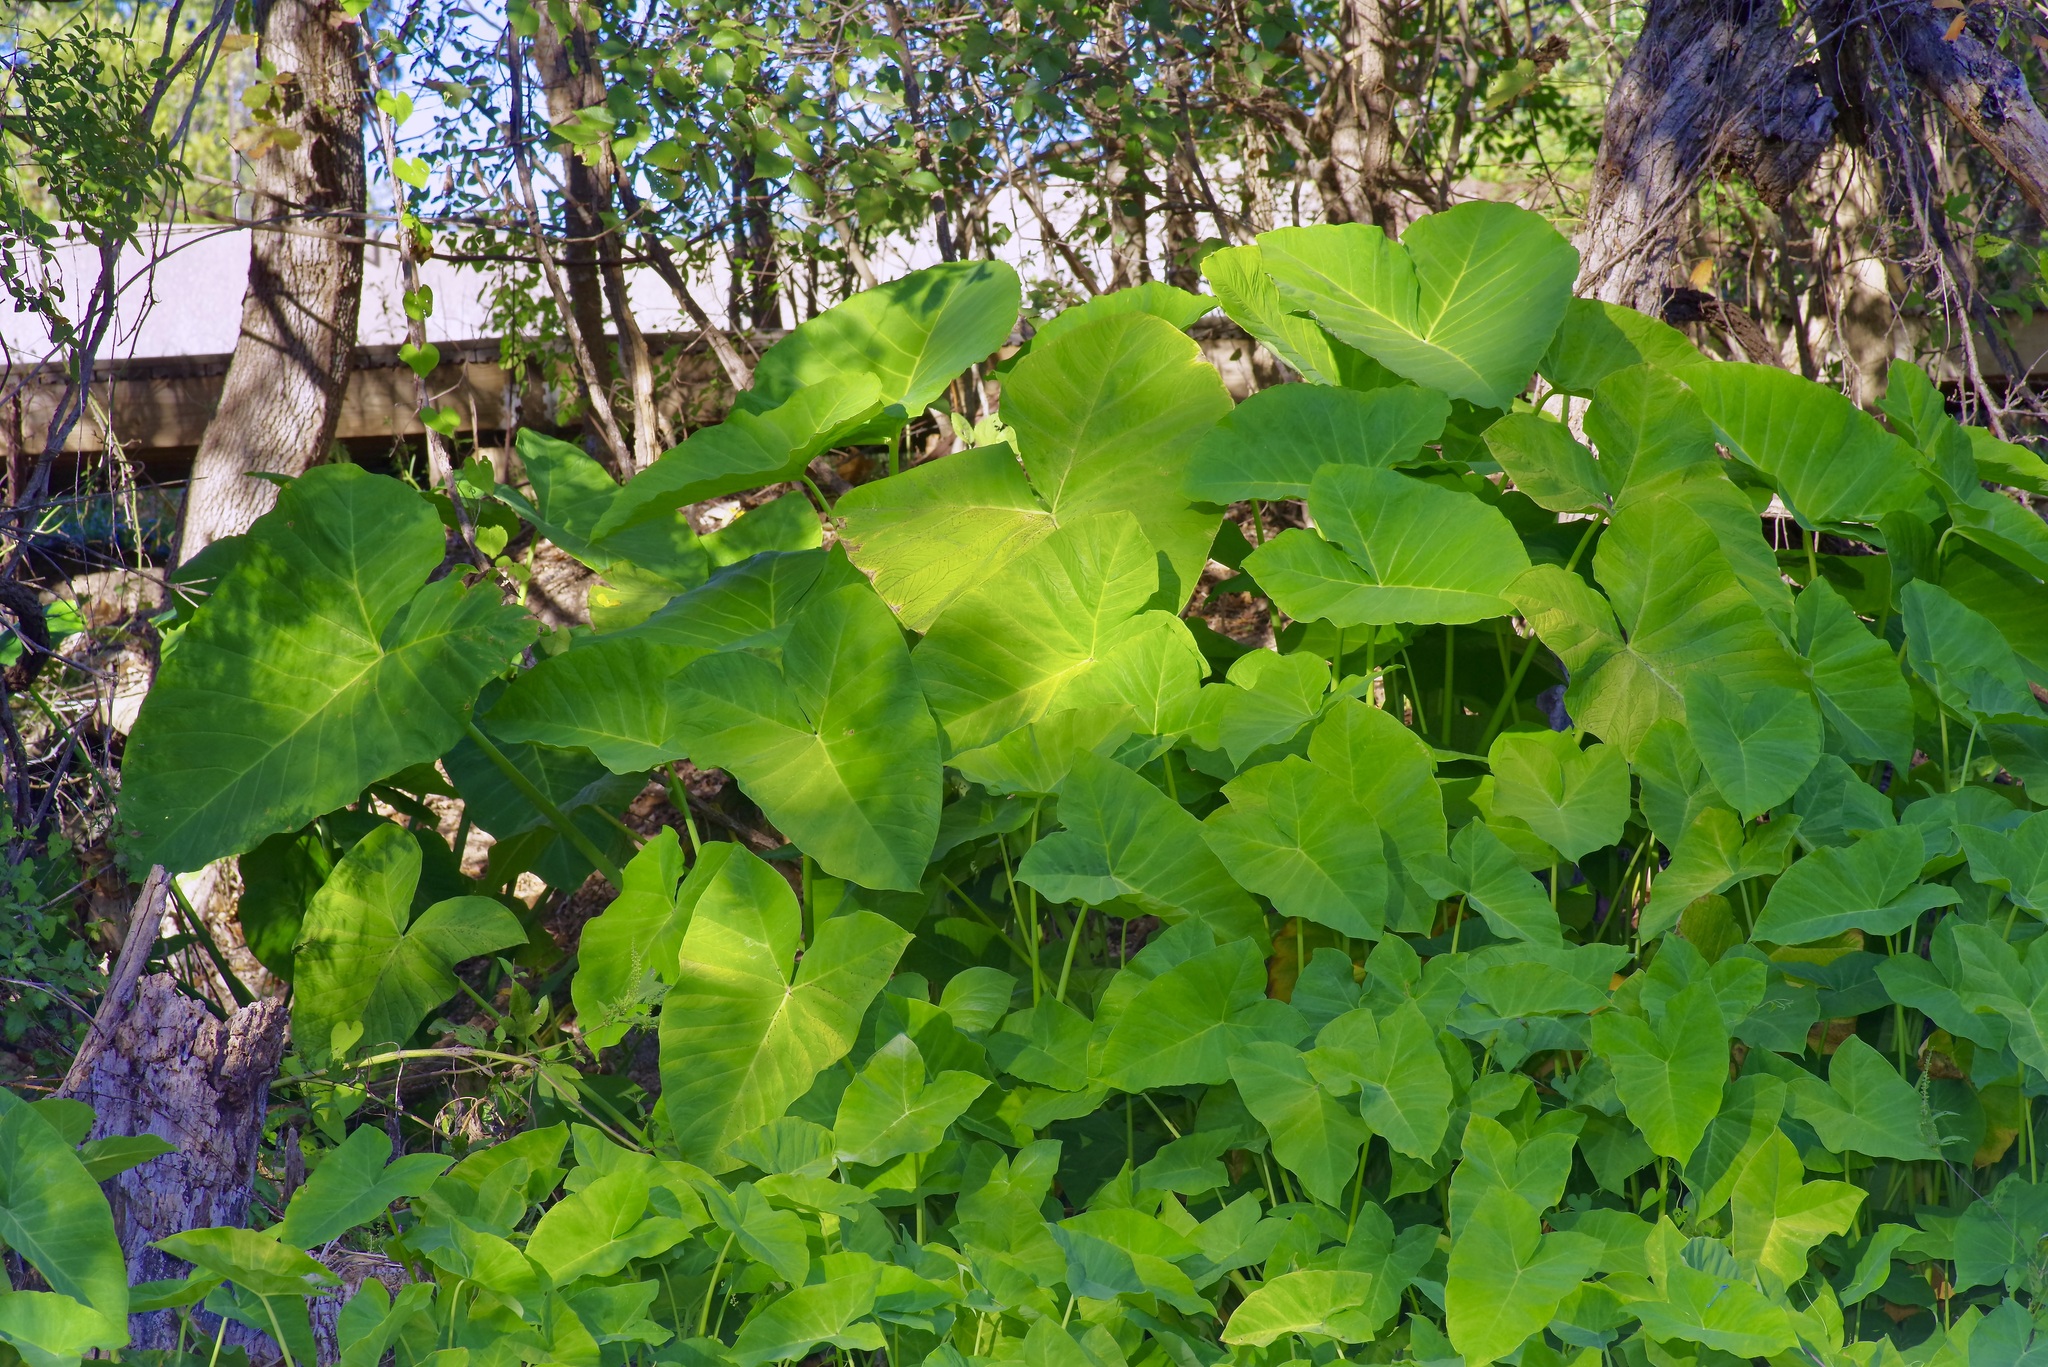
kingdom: Plantae
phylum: Tracheophyta
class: Liliopsida
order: Alismatales
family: Araceae
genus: Xanthosoma
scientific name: Xanthosoma sagittifolium
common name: Arrowleaf elephant's ear
